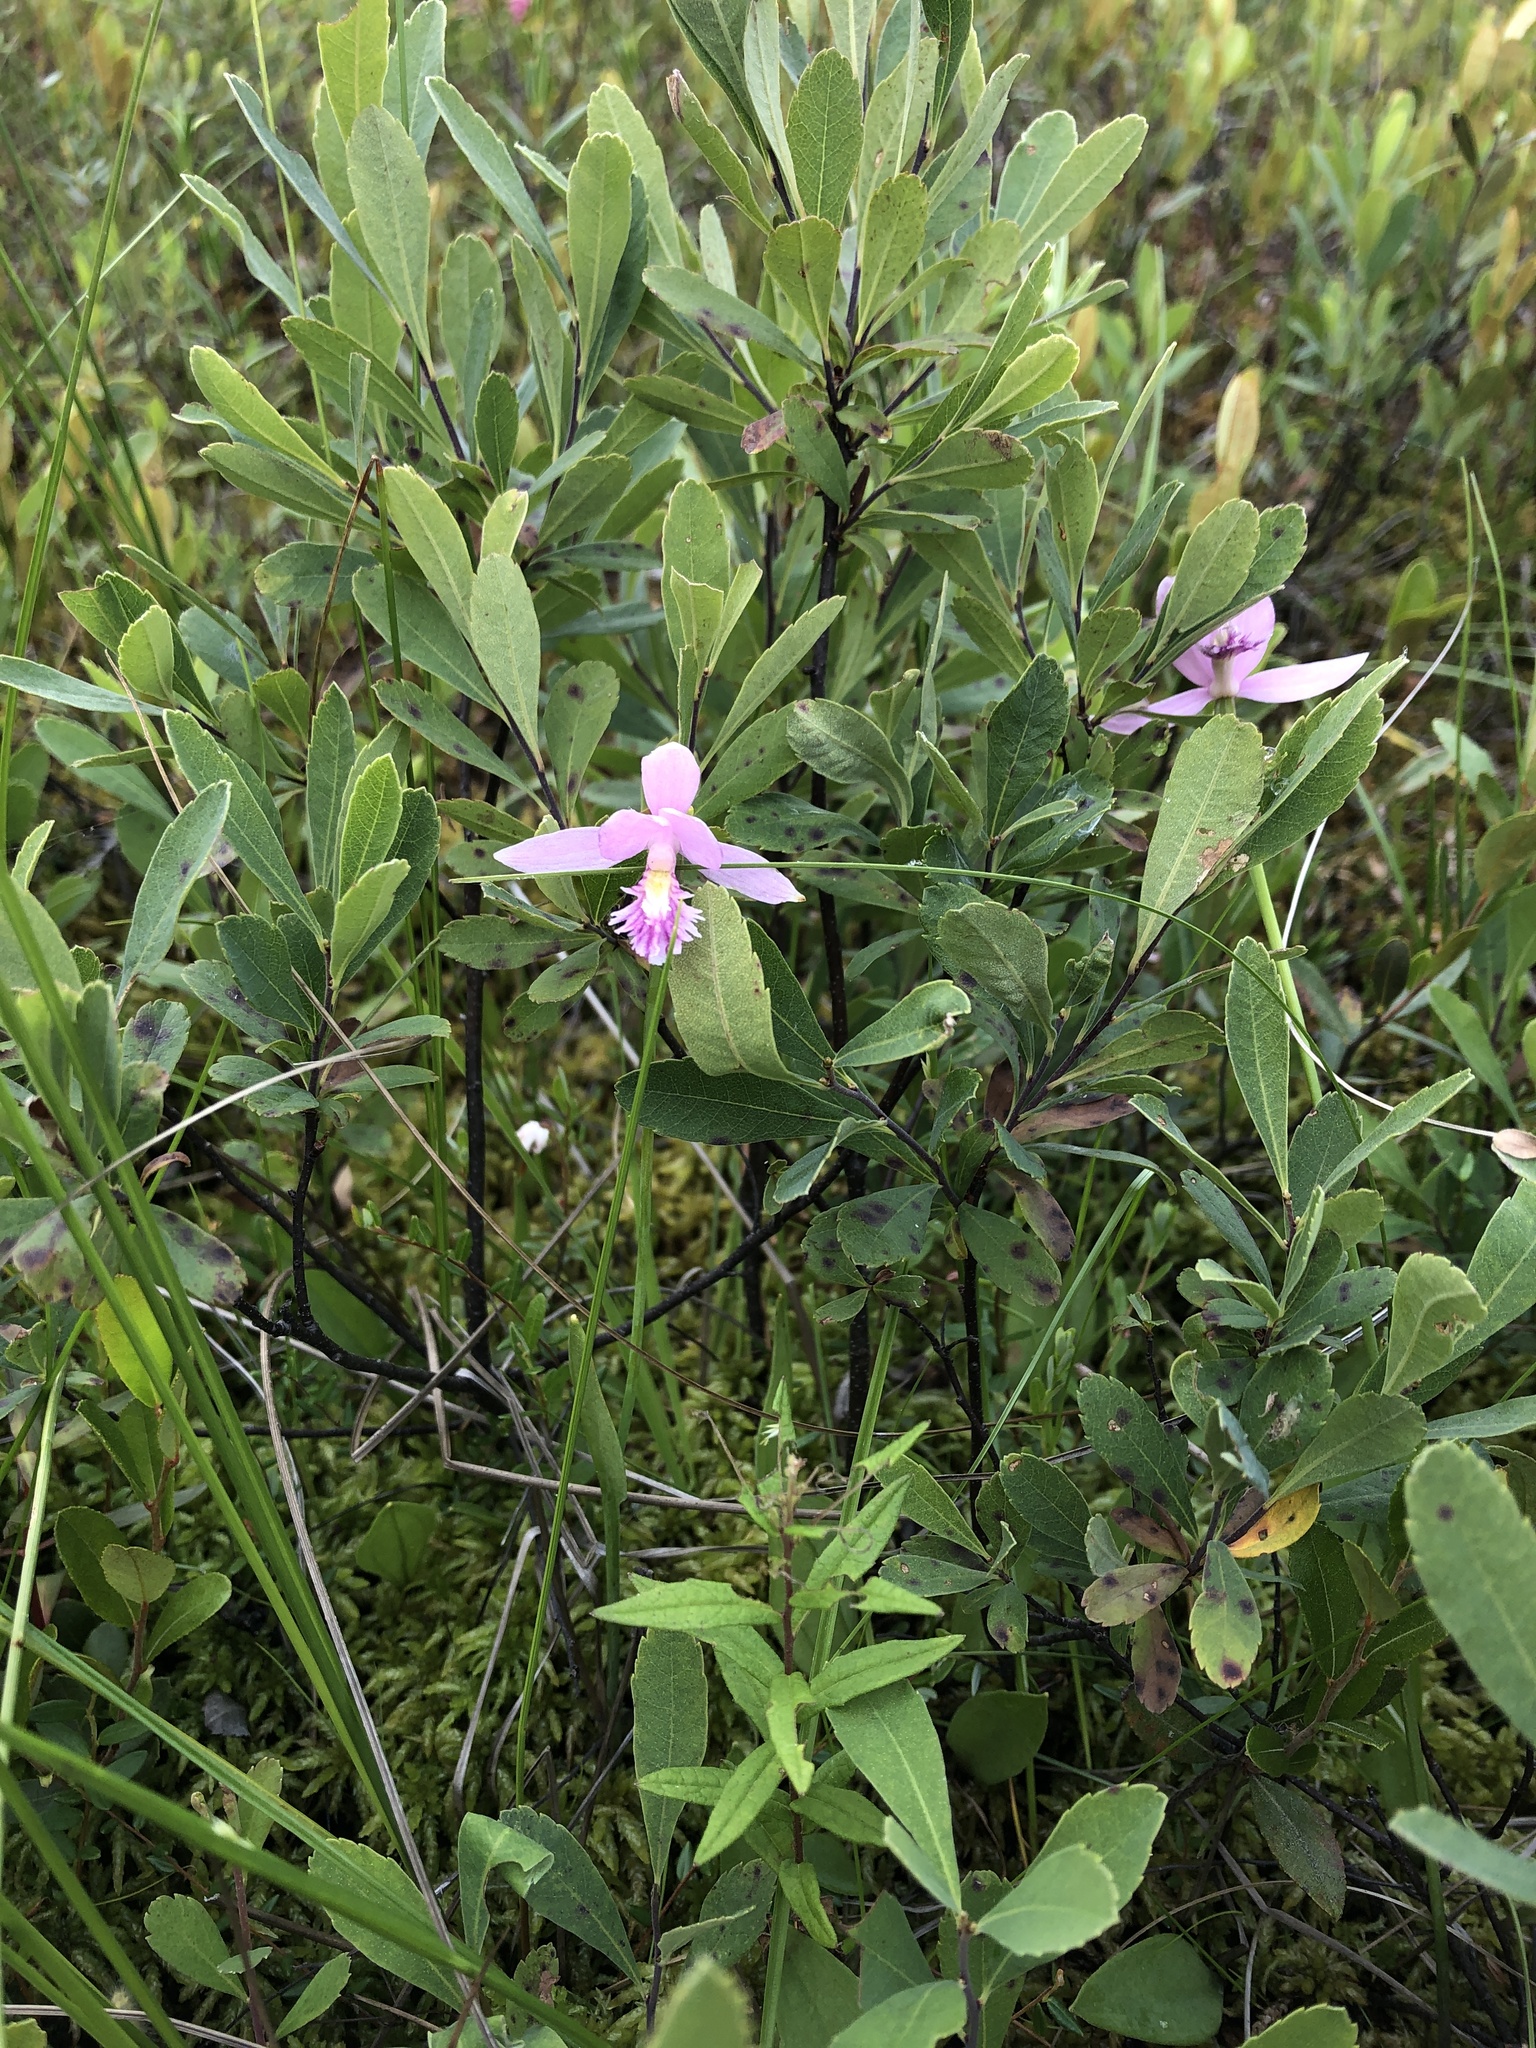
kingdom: Plantae
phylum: Tracheophyta
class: Liliopsida
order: Asparagales
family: Orchidaceae
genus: Pogonia
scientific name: Pogonia ophioglossoides
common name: Rose pogonia
